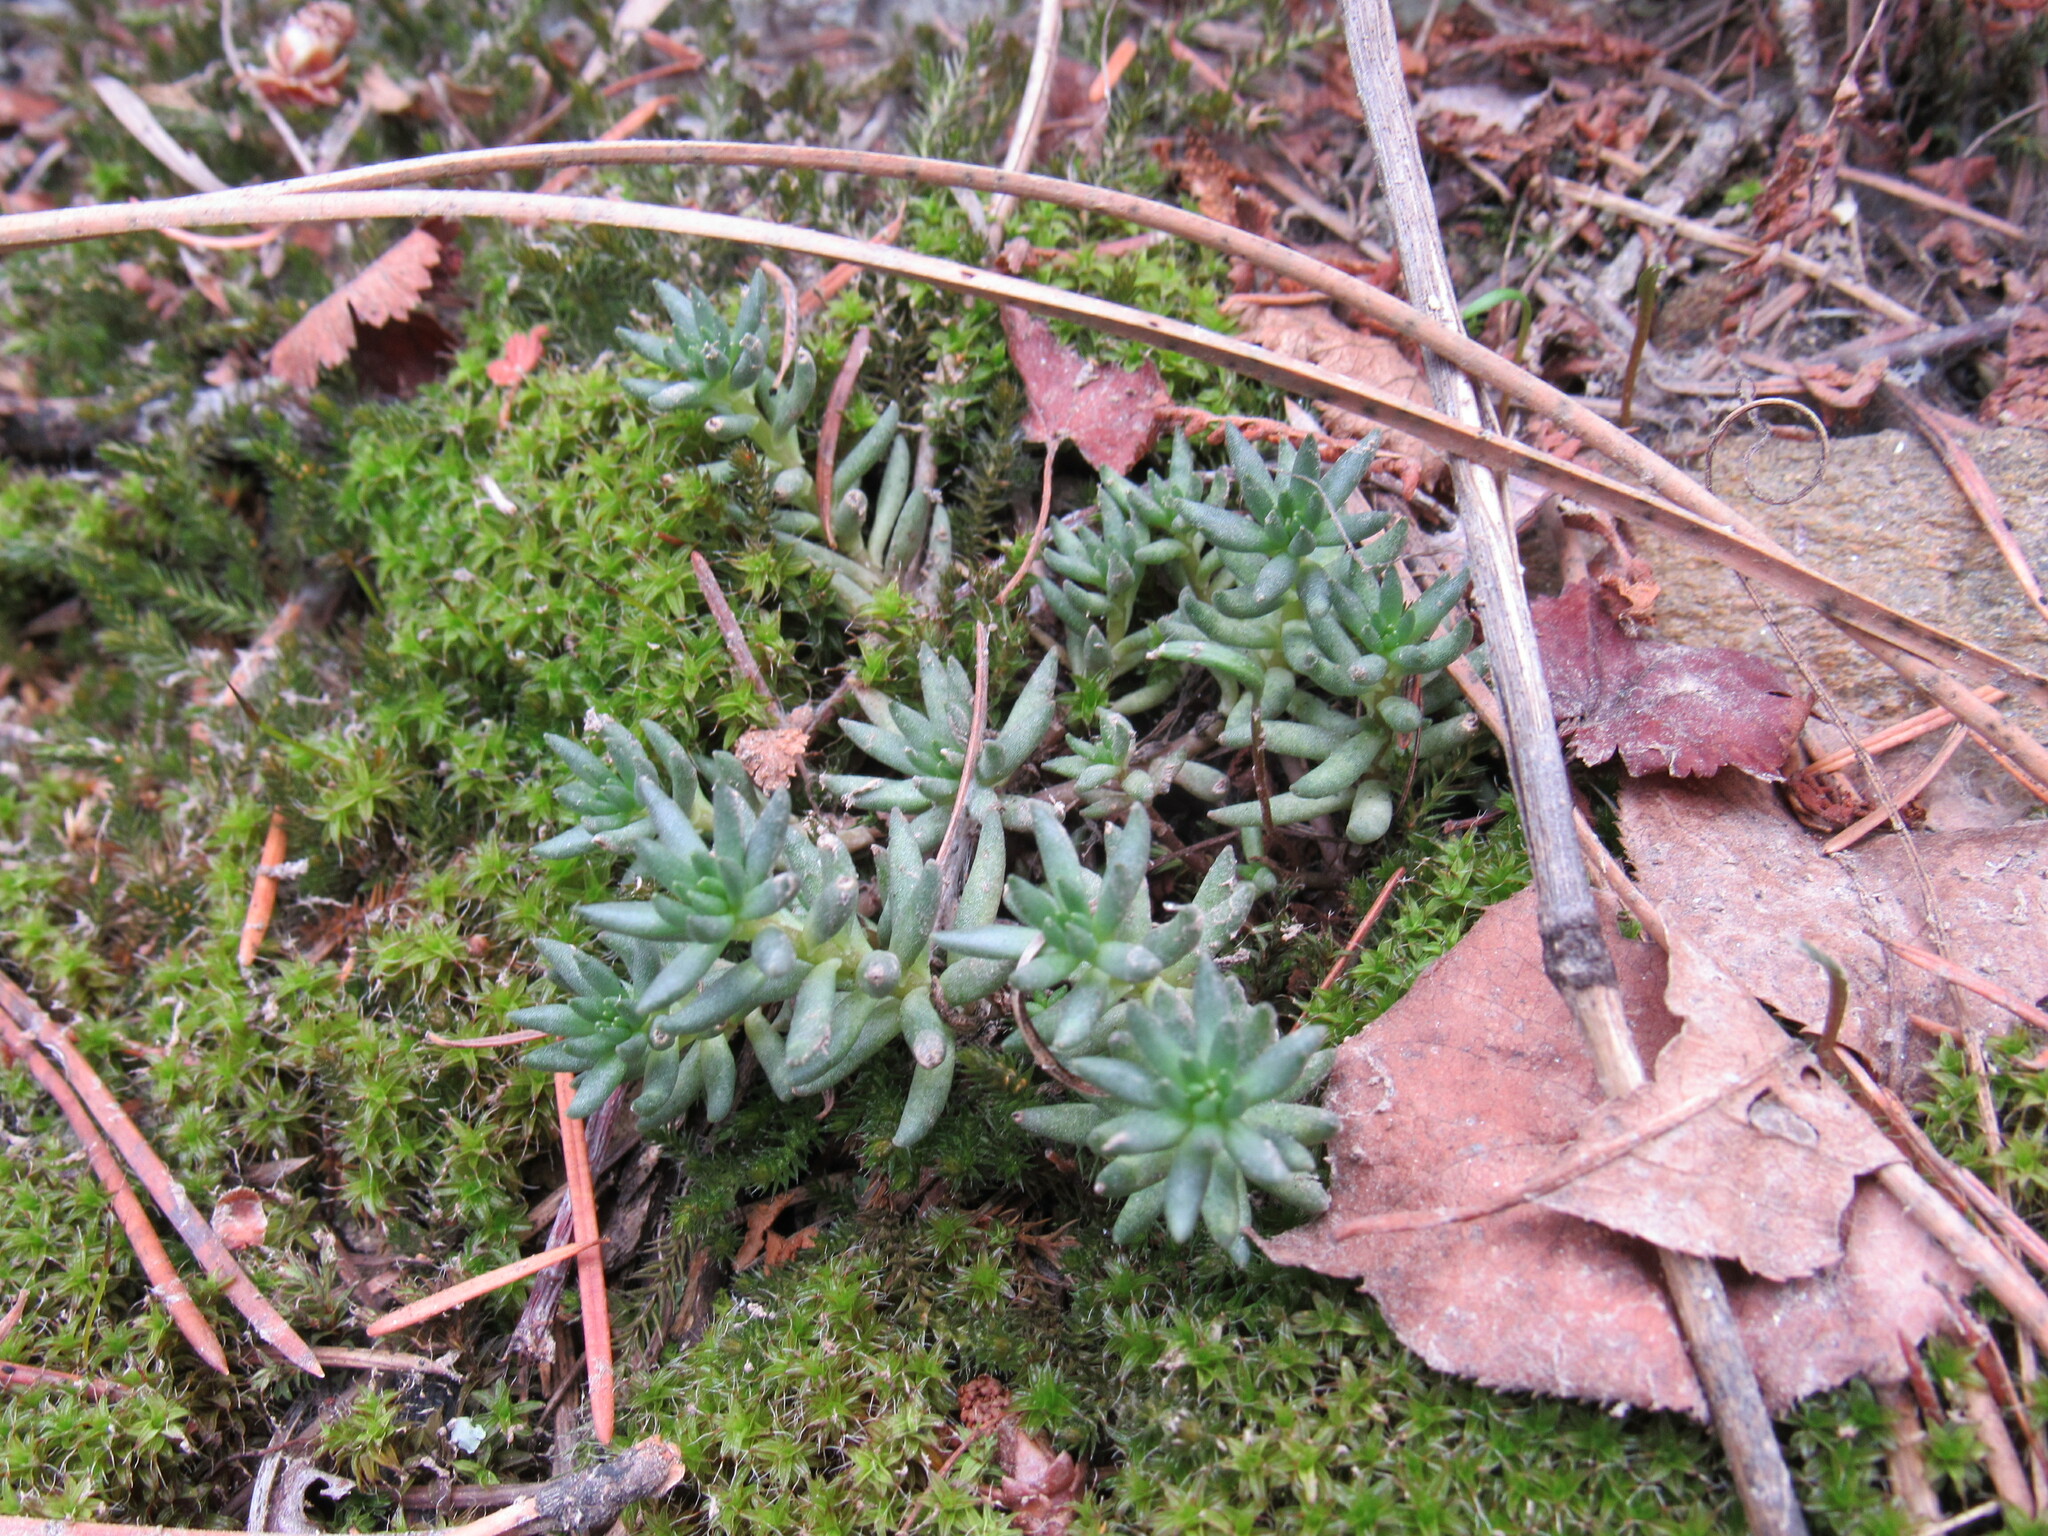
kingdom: Plantae
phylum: Tracheophyta
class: Magnoliopsida
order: Saxifragales
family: Crassulaceae
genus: Sedum
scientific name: Sedum lanceolatum
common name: Common stonecrop
